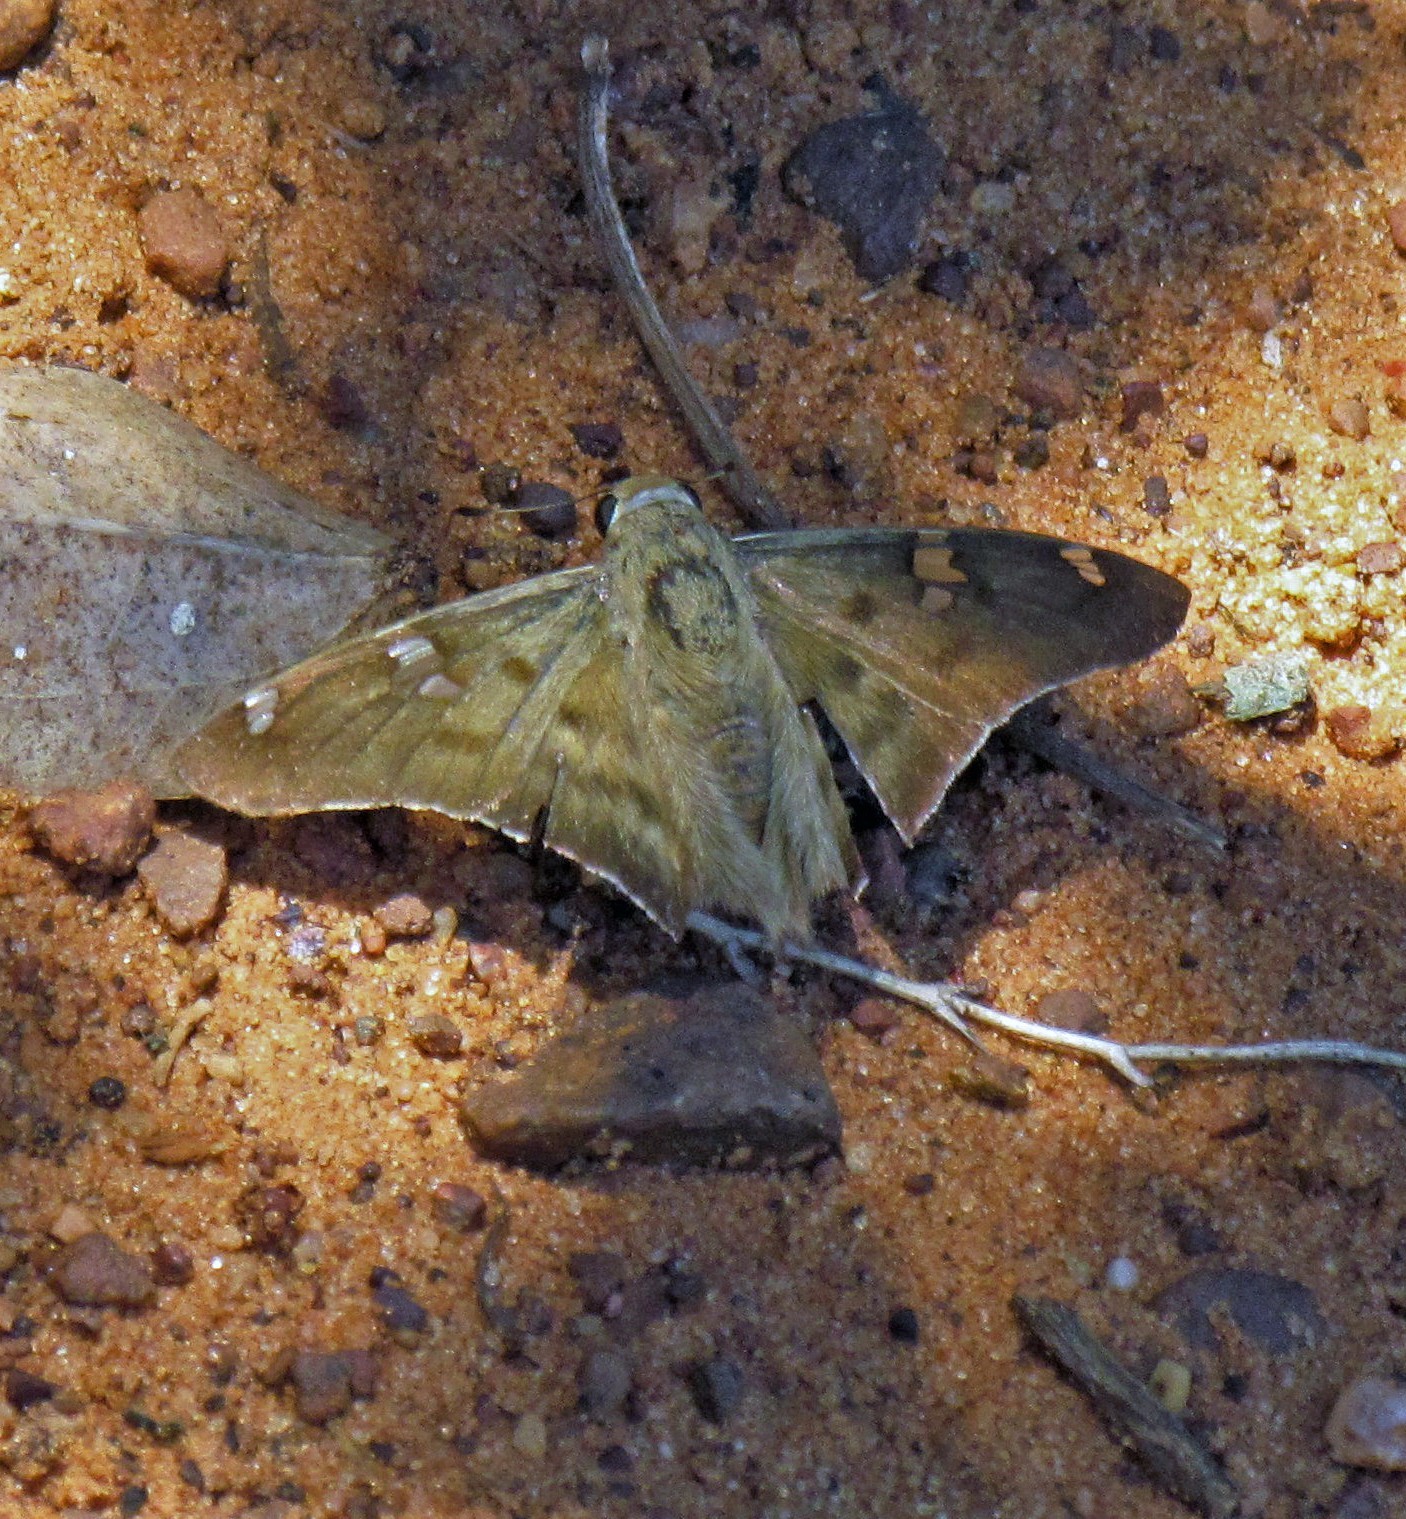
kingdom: Animalia
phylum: Arthropoda
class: Insecta
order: Lepidoptera
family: Hesperiidae
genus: Polythrix
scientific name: Polythrix octomaculata
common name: Eight-spotted longtail
